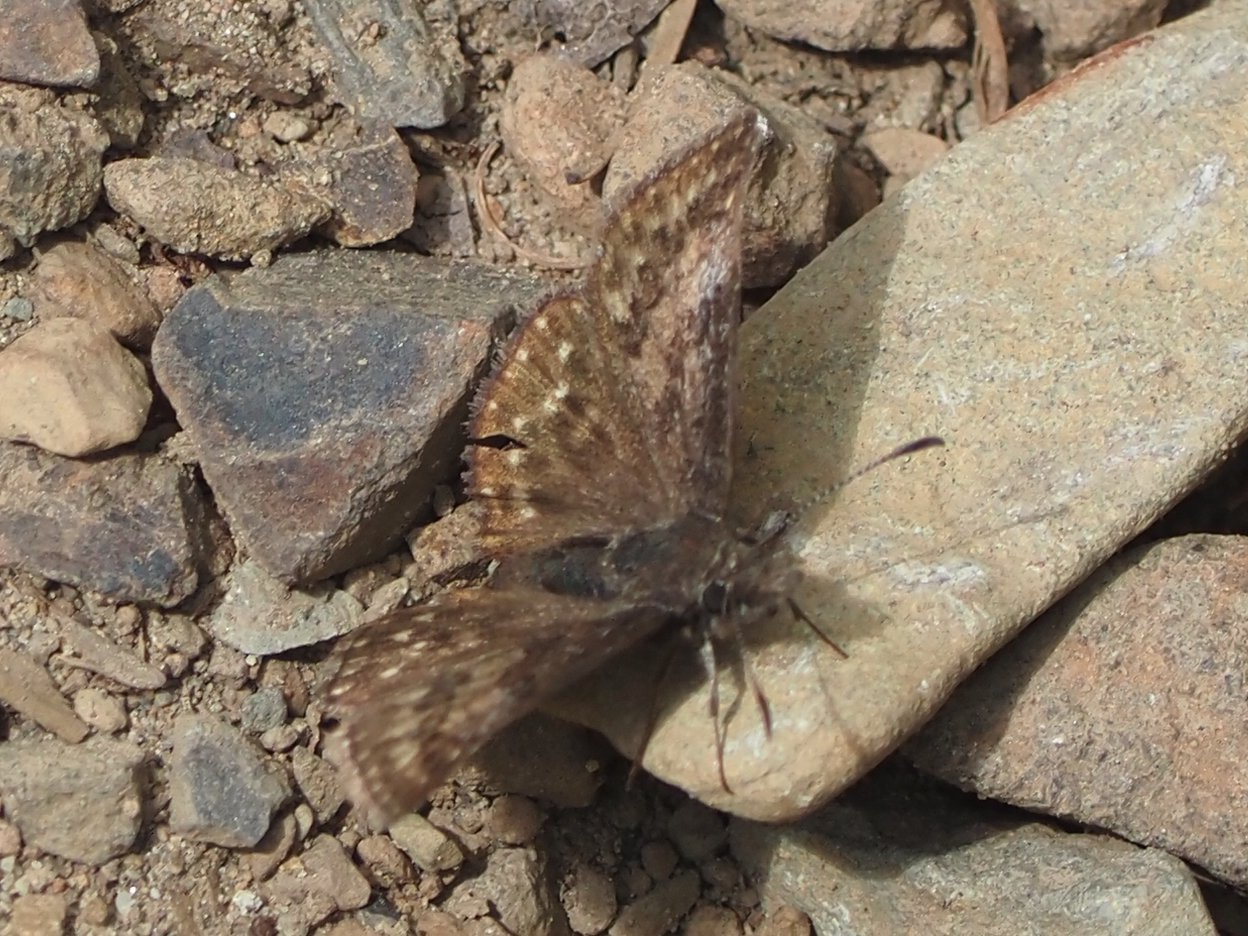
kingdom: Animalia
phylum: Arthropoda
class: Insecta
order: Lepidoptera
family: Hesperiidae
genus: Erynnis
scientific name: Erynnis icelus
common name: Dreamy duskywing
